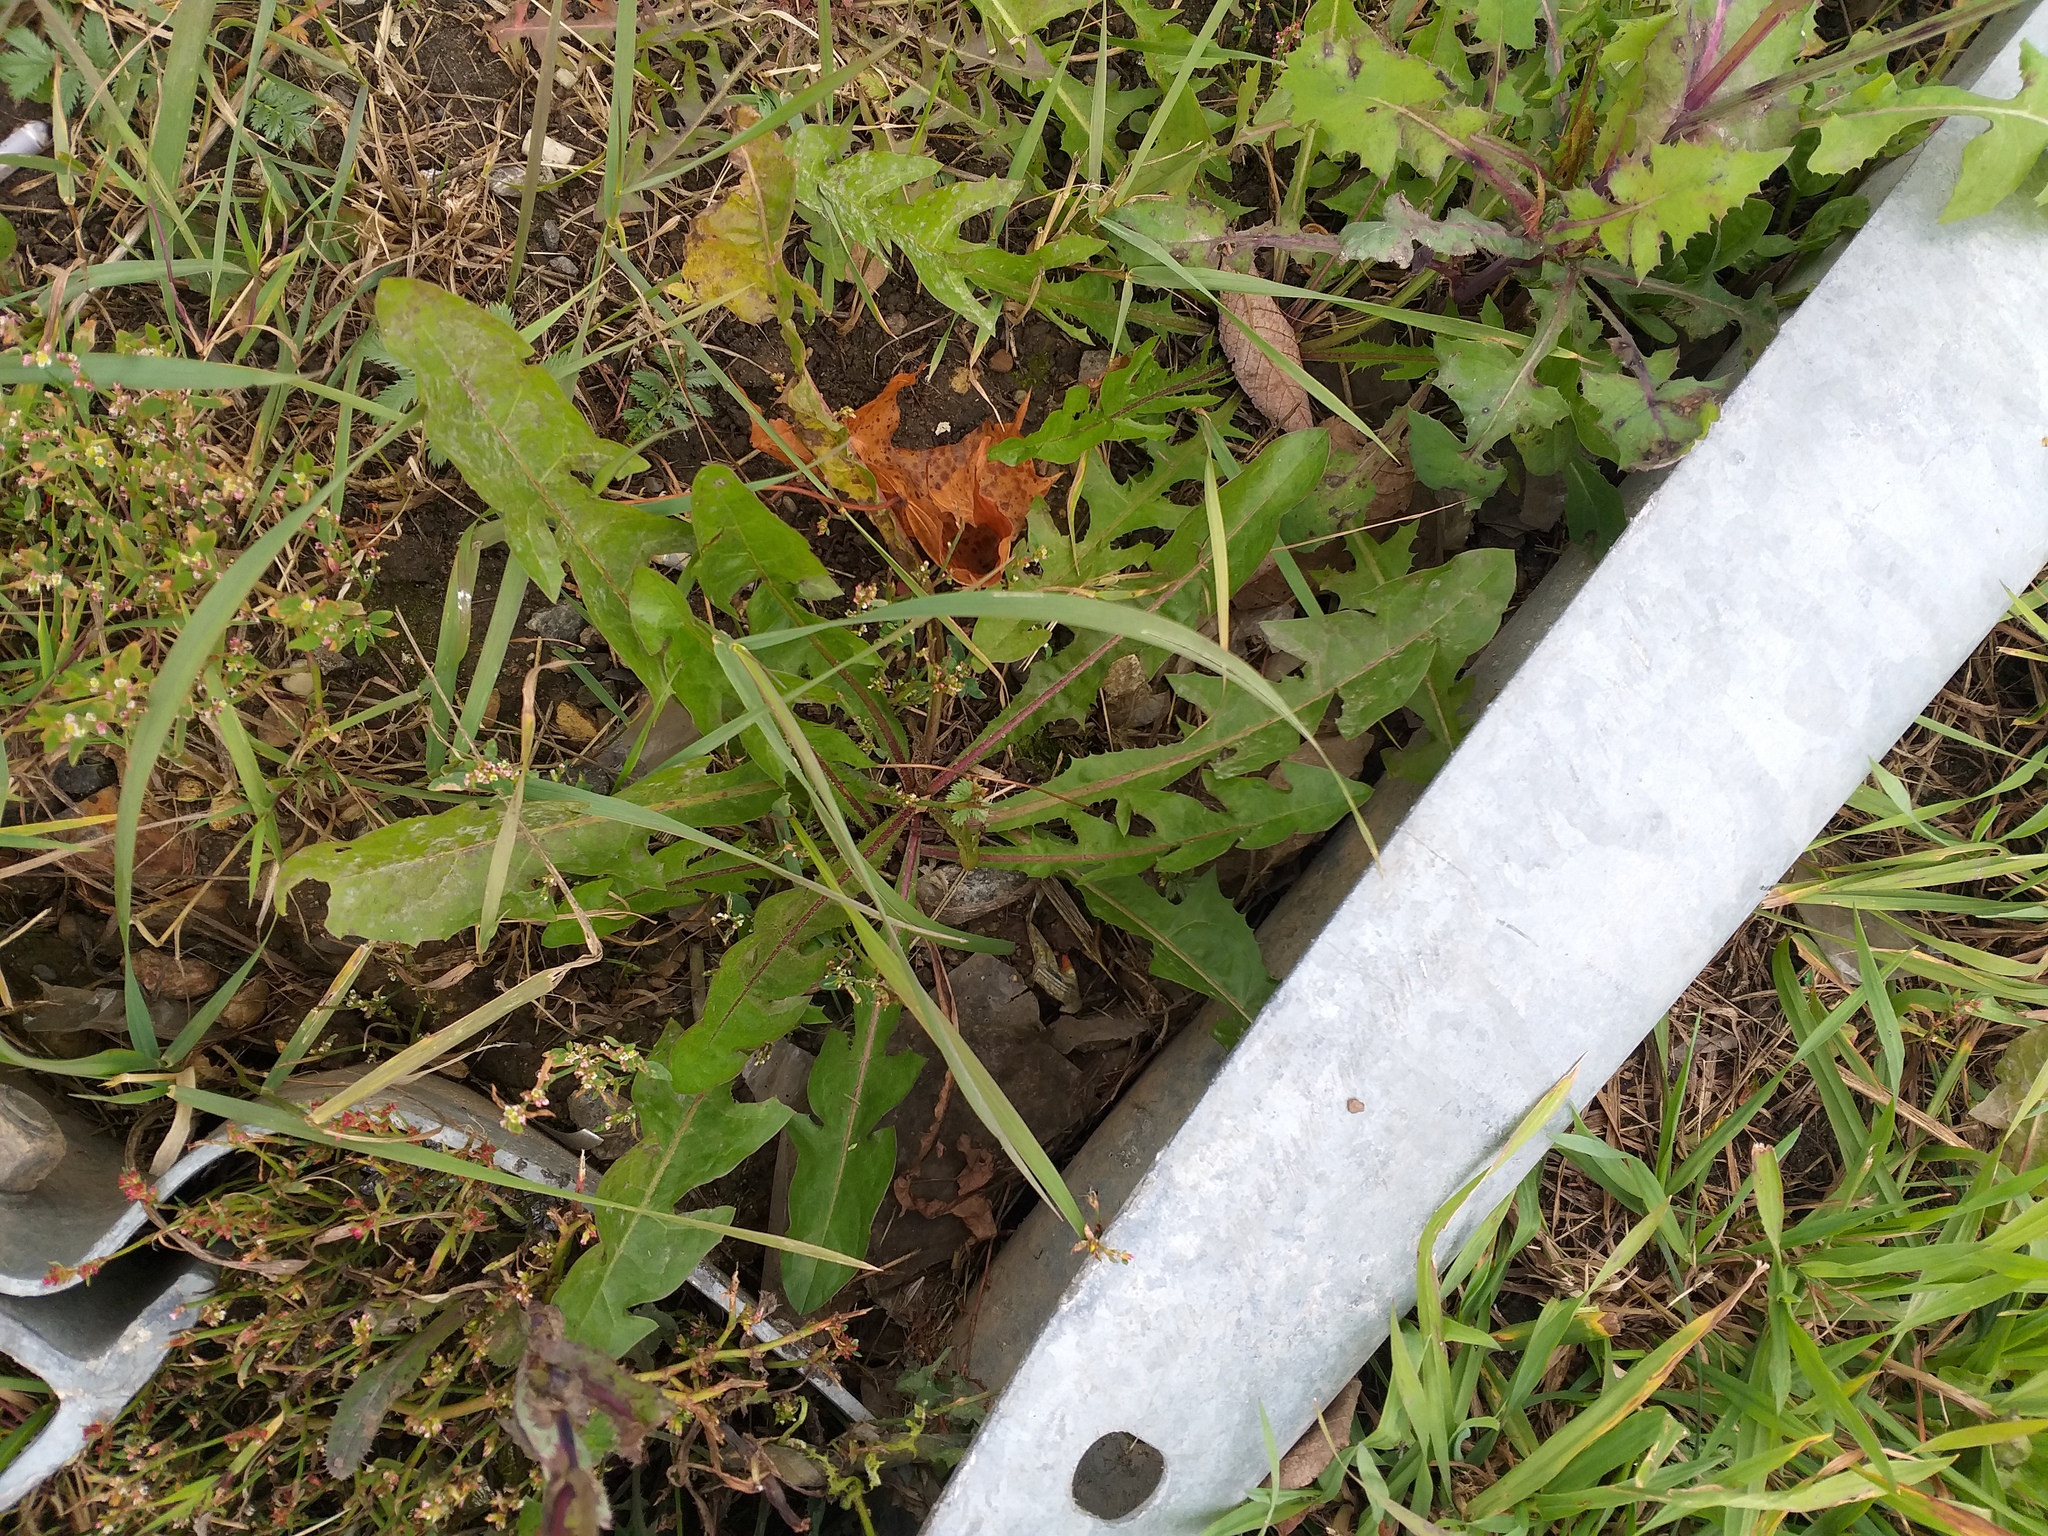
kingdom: Plantae
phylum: Tracheophyta
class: Magnoliopsida
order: Asterales
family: Asteraceae
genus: Taraxacum
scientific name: Taraxacum officinale
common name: Common dandelion
